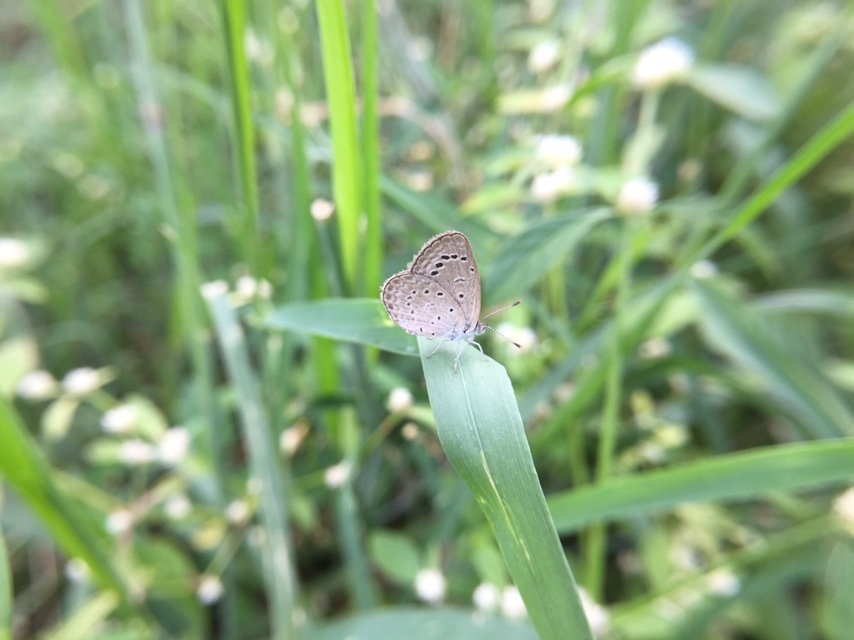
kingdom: Animalia
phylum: Arthropoda
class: Insecta
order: Lepidoptera
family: Lycaenidae
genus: Zizeeria
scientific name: Zizeeria karsandra
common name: Dark grass blue
